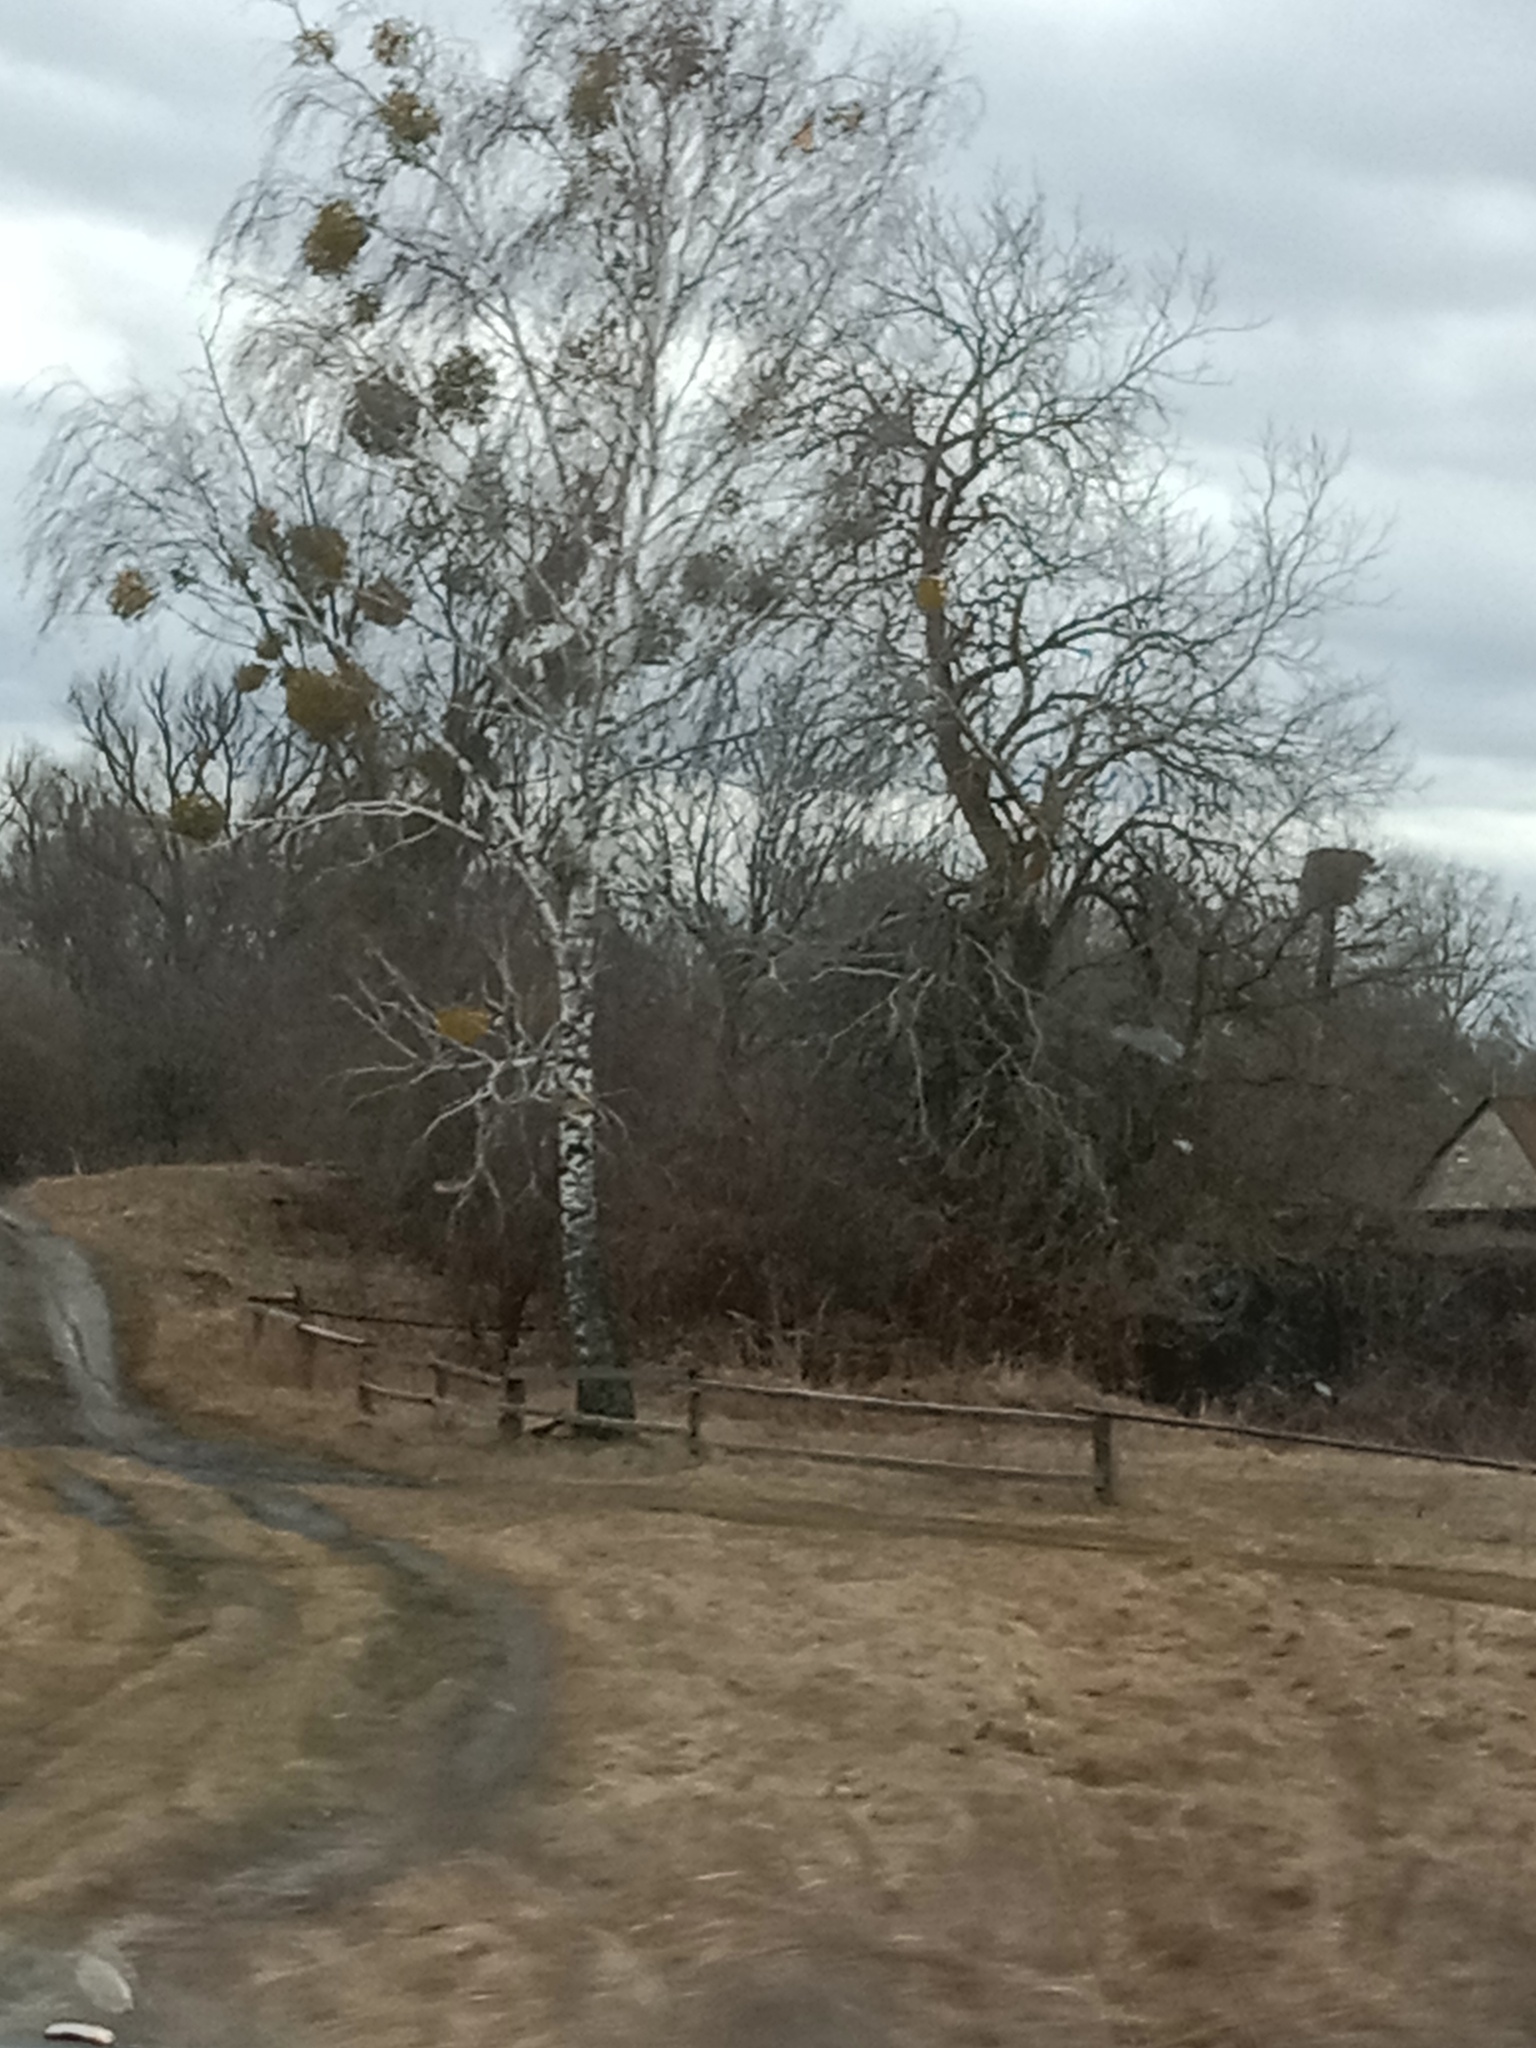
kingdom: Plantae
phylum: Tracheophyta
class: Magnoliopsida
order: Santalales
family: Viscaceae
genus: Viscum
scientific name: Viscum album
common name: Mistletoe
